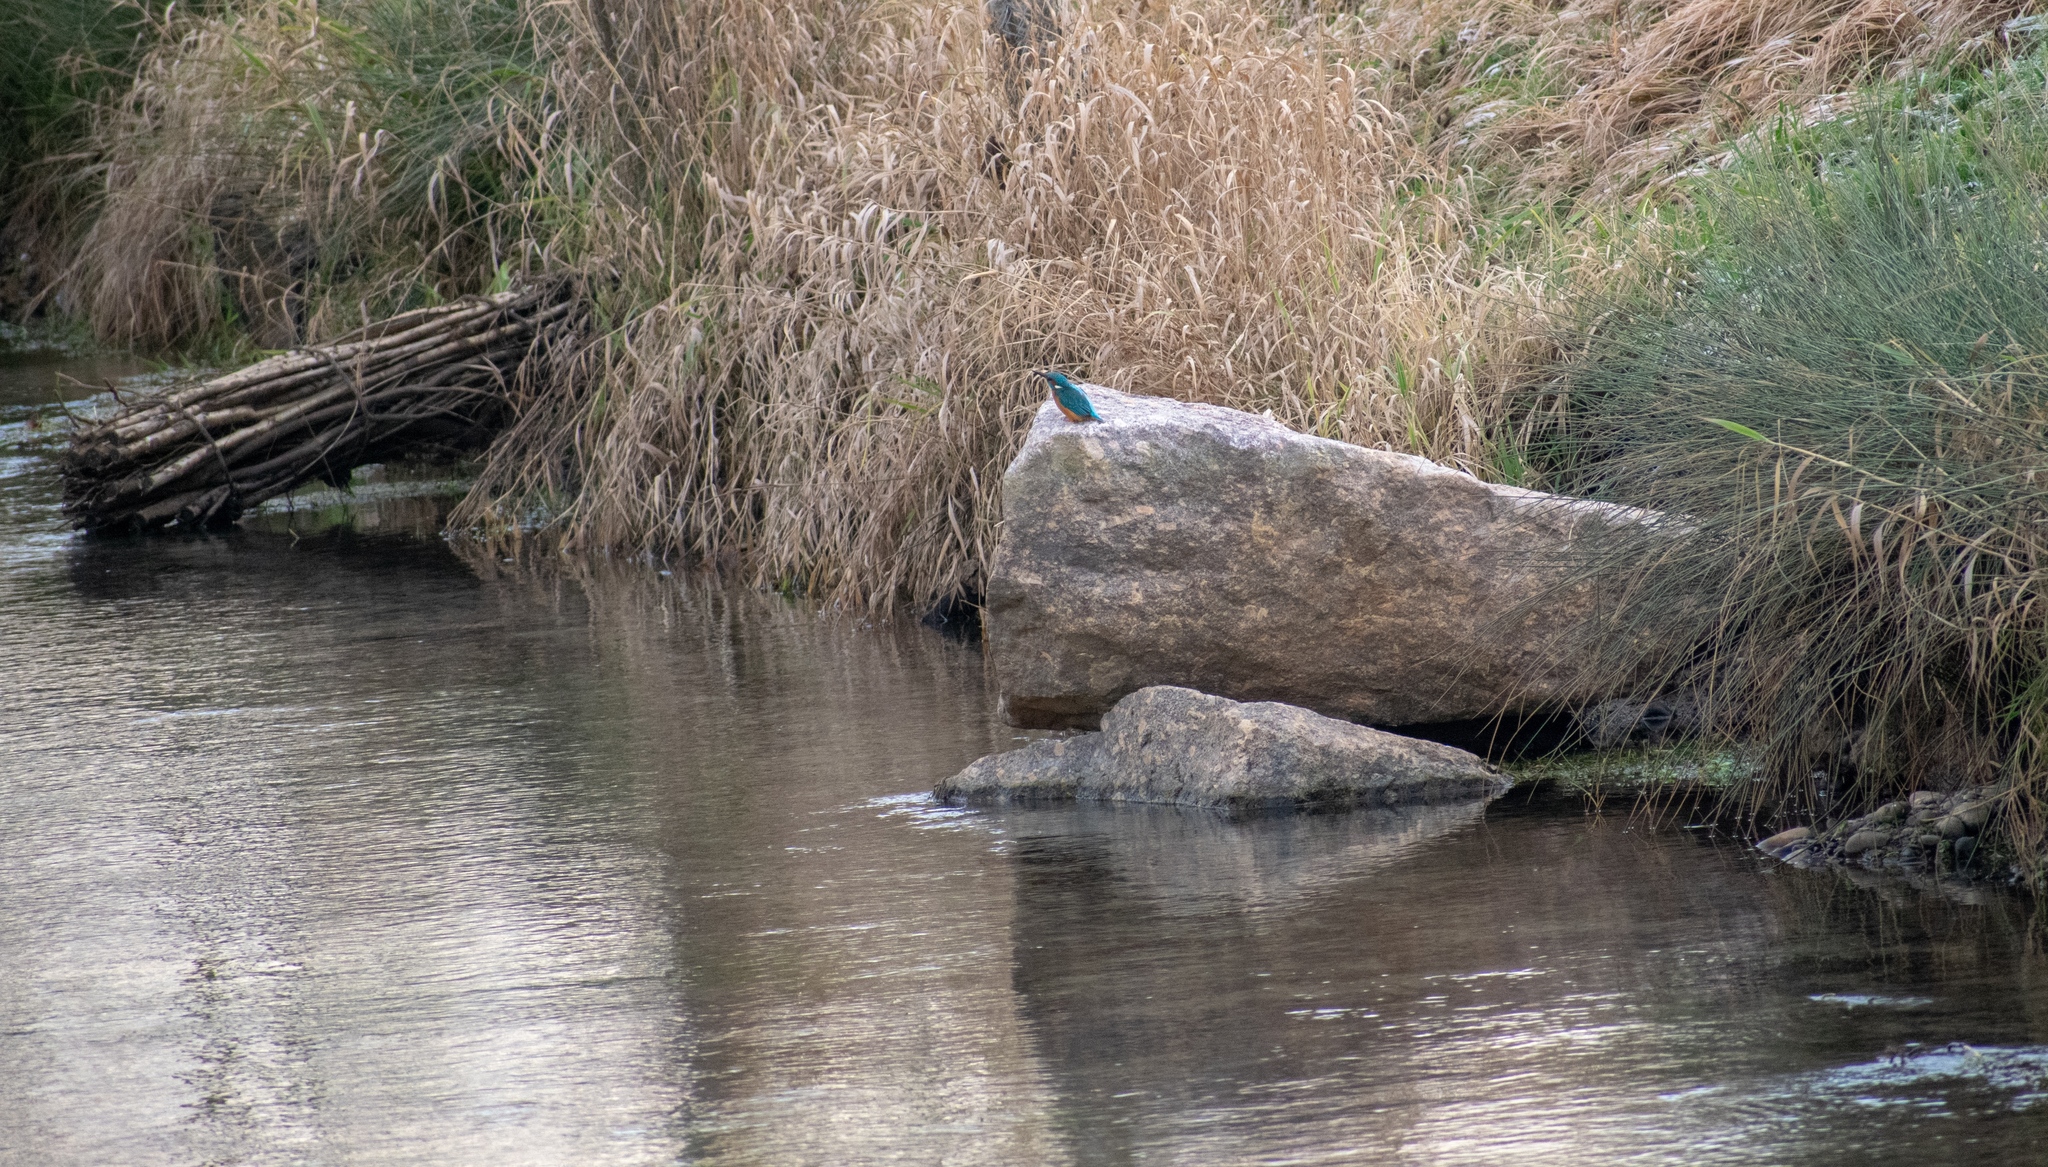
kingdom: Animalia
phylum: Chordata
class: Aves
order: Coraciiformes
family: Alcedinidae
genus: Alcedo
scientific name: Alcedo atthis
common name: Common kingfisher
